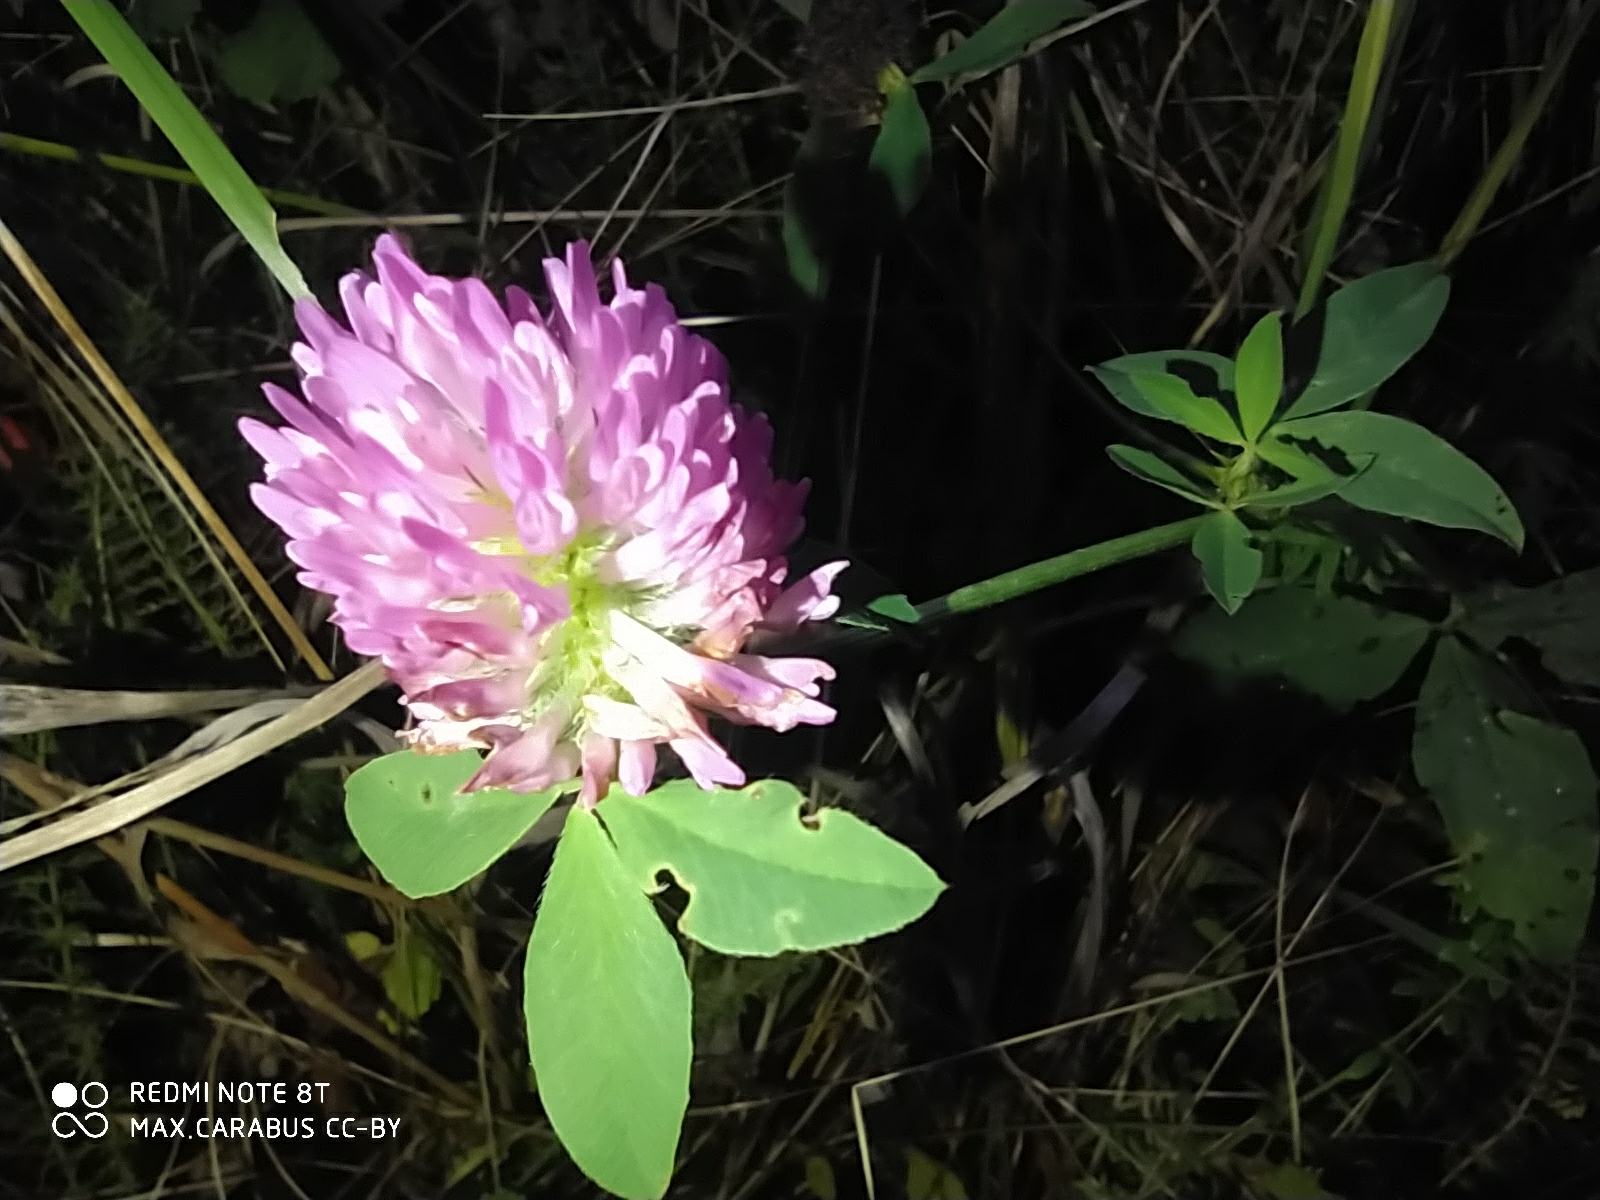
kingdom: Plantae
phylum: Tracheophyta
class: Magnoliopsida
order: Fabales
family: Fabaceae
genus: Trifolium
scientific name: Trifolium pratense
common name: Red clover
